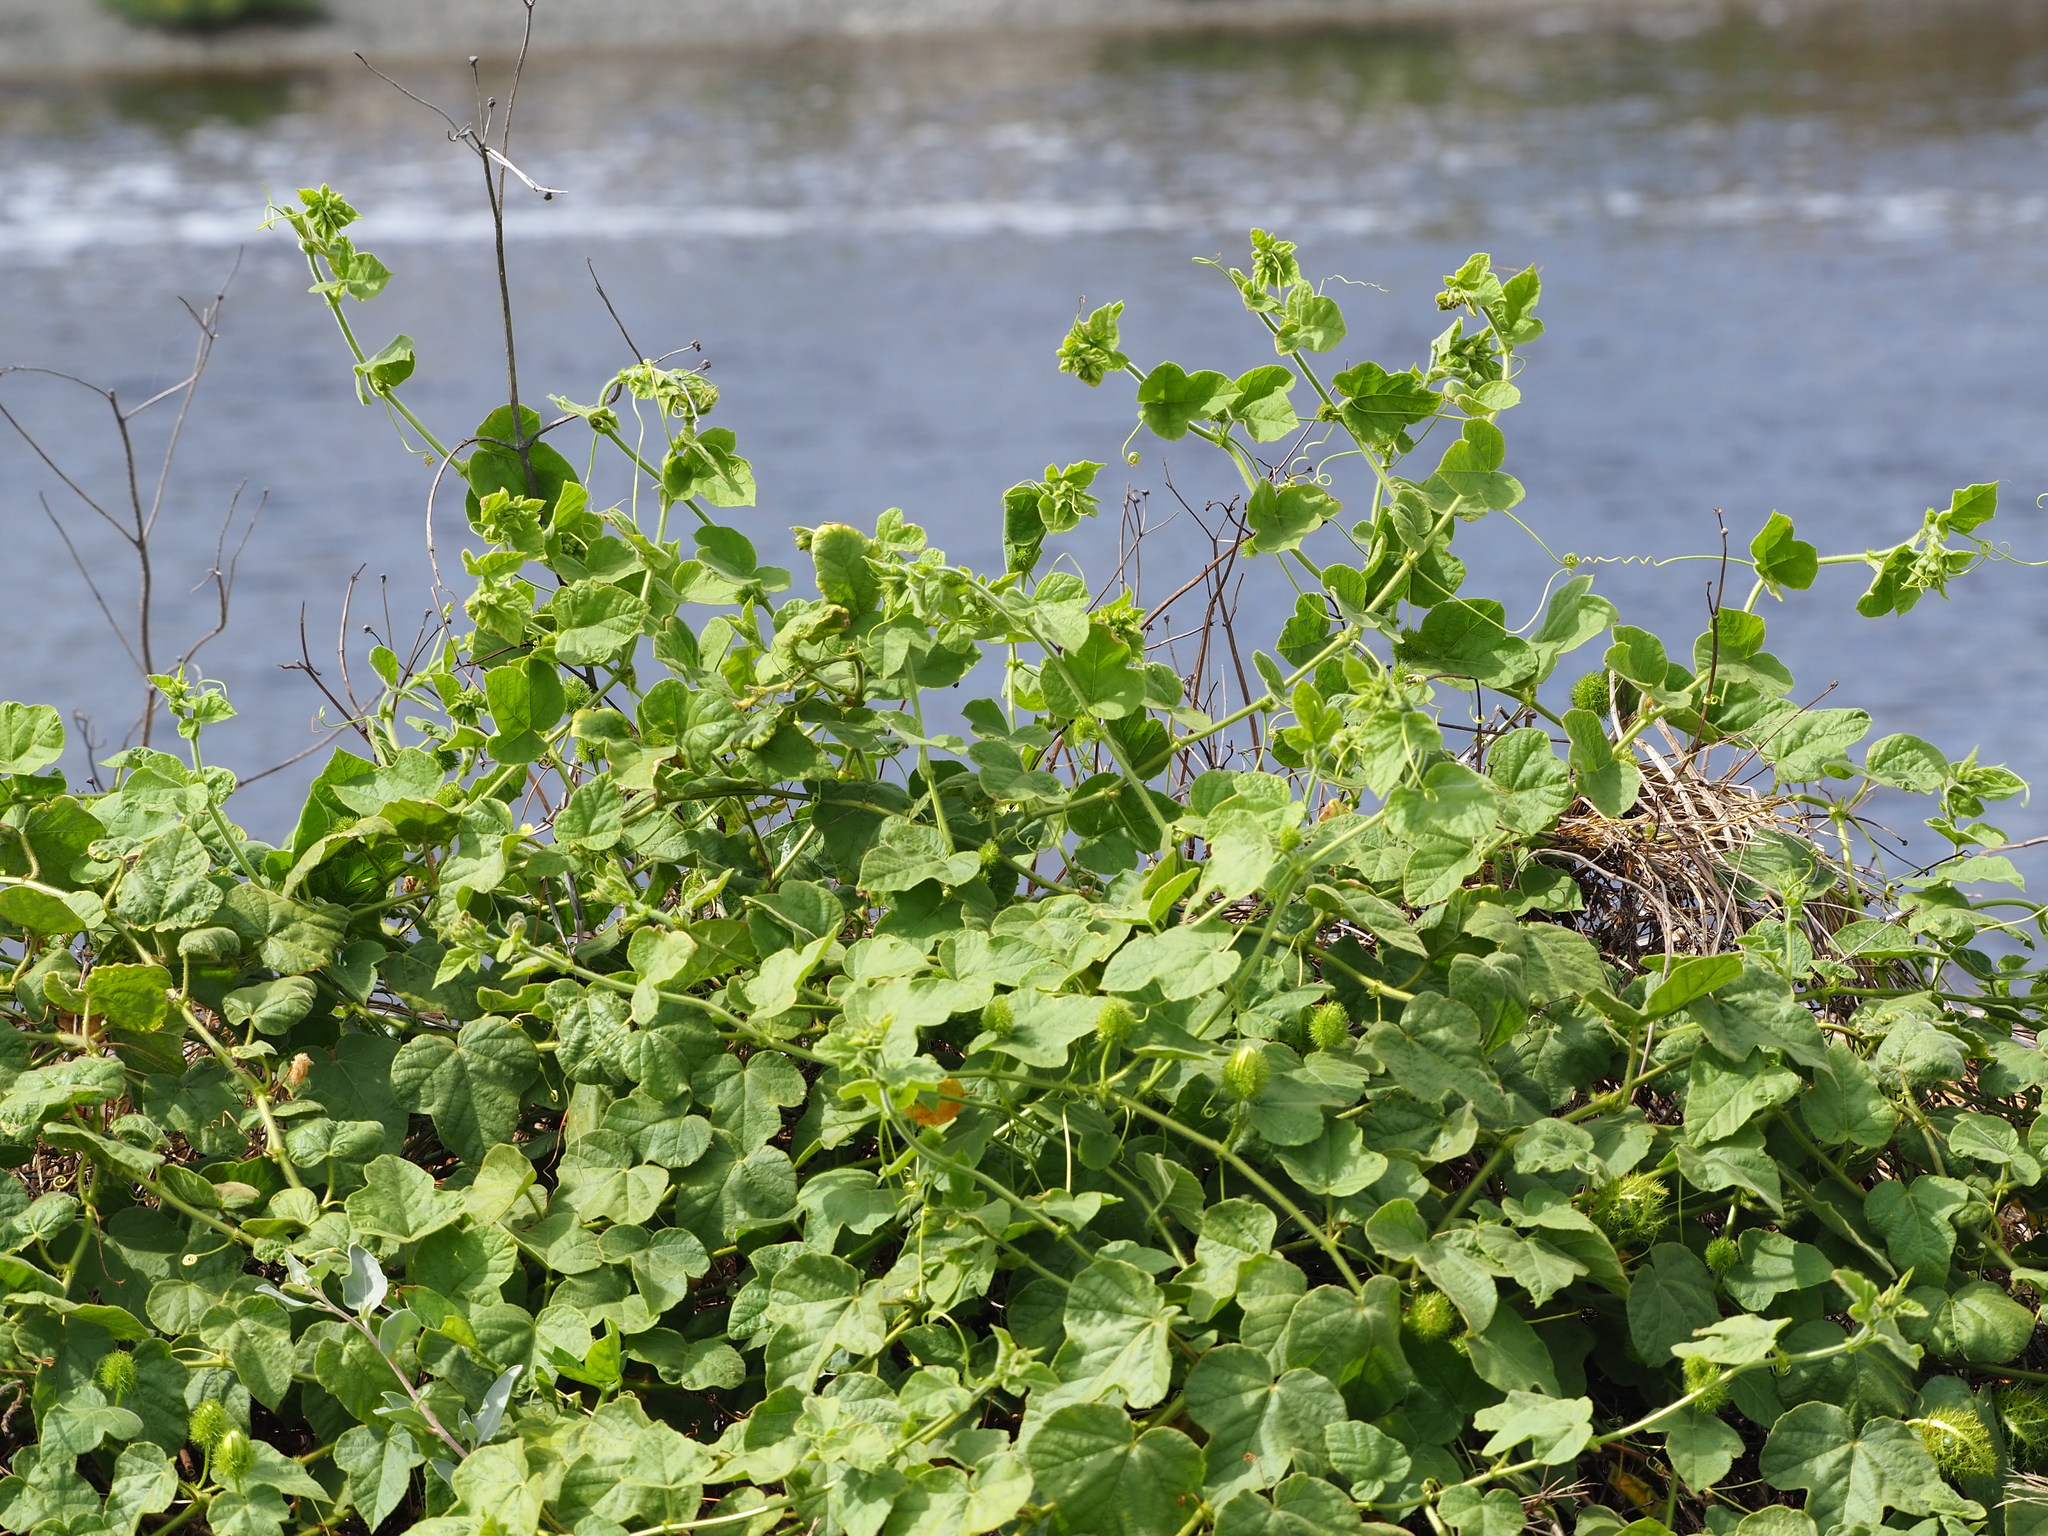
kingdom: Plantae
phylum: Tracheophyta
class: Magnoliopsida
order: Malpighiales
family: Passifloraceae
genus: Passiflora
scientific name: Passiflora vesicaria
